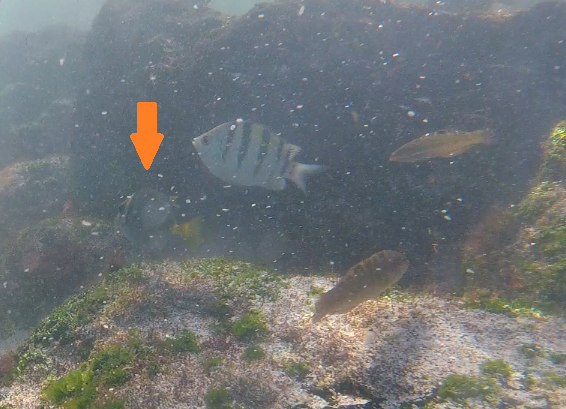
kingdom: Animalia
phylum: Chordata
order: Perciformes
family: Acanthuridae
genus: Prionurus
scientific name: Prionurus laticlavius
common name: Razor surgeonfish
